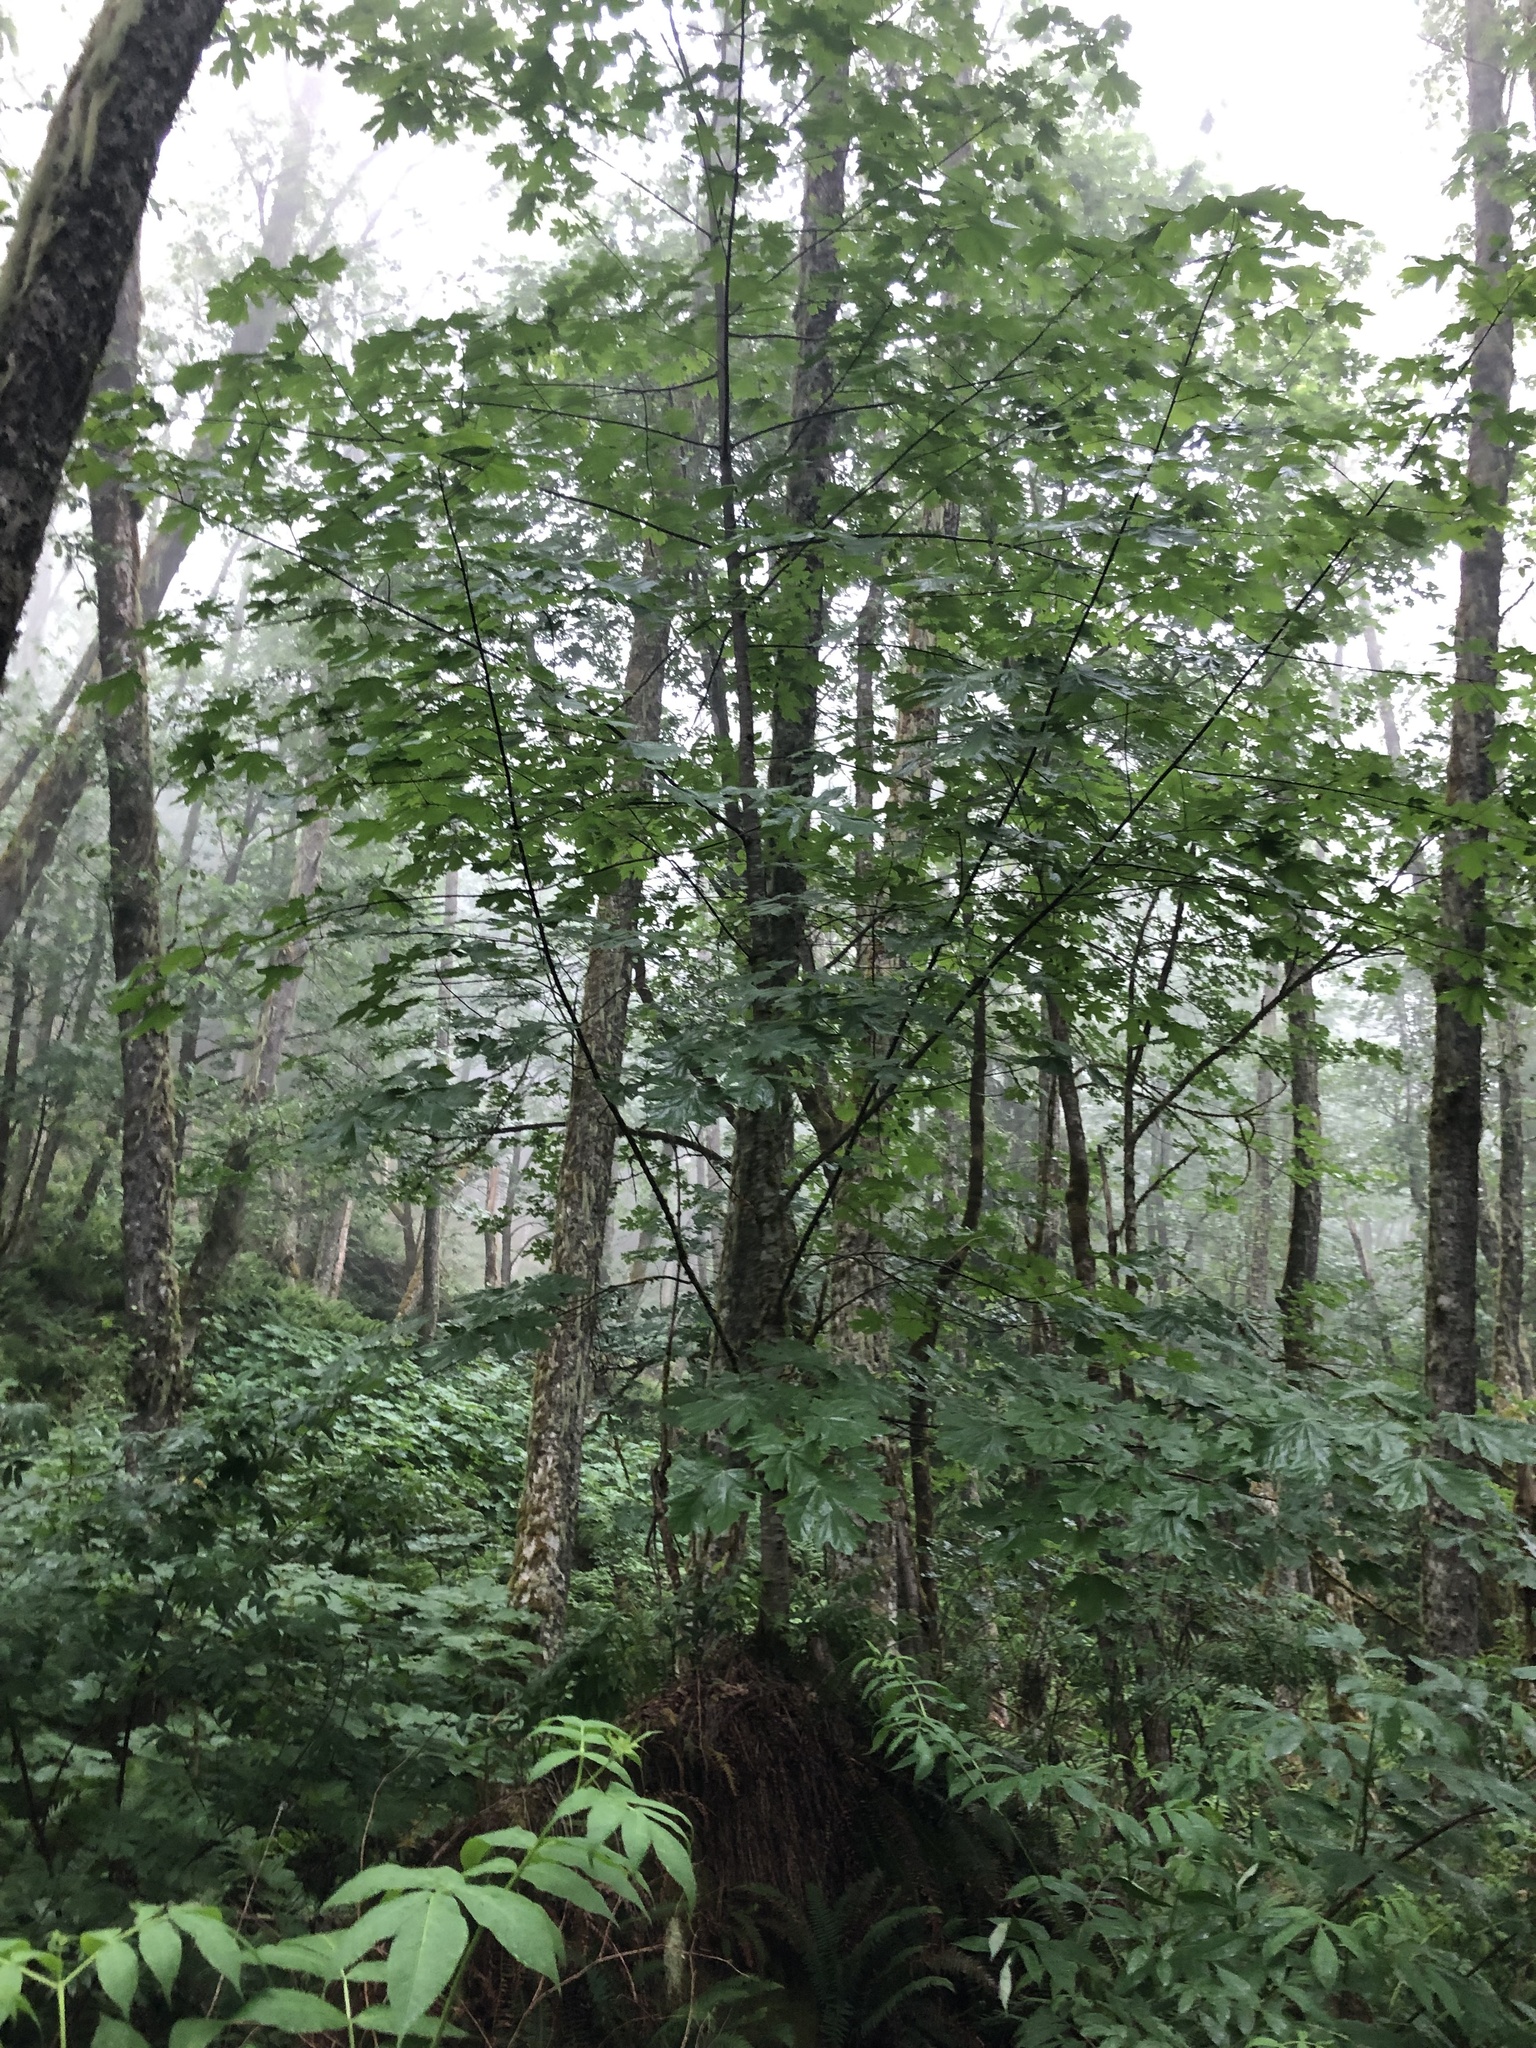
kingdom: Plantae
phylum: Tracheophyta
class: Magnoliopsida
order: Sapindales
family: Sapindaceae
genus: Acer
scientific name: Acer macrophyllum
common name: Oregon maple
